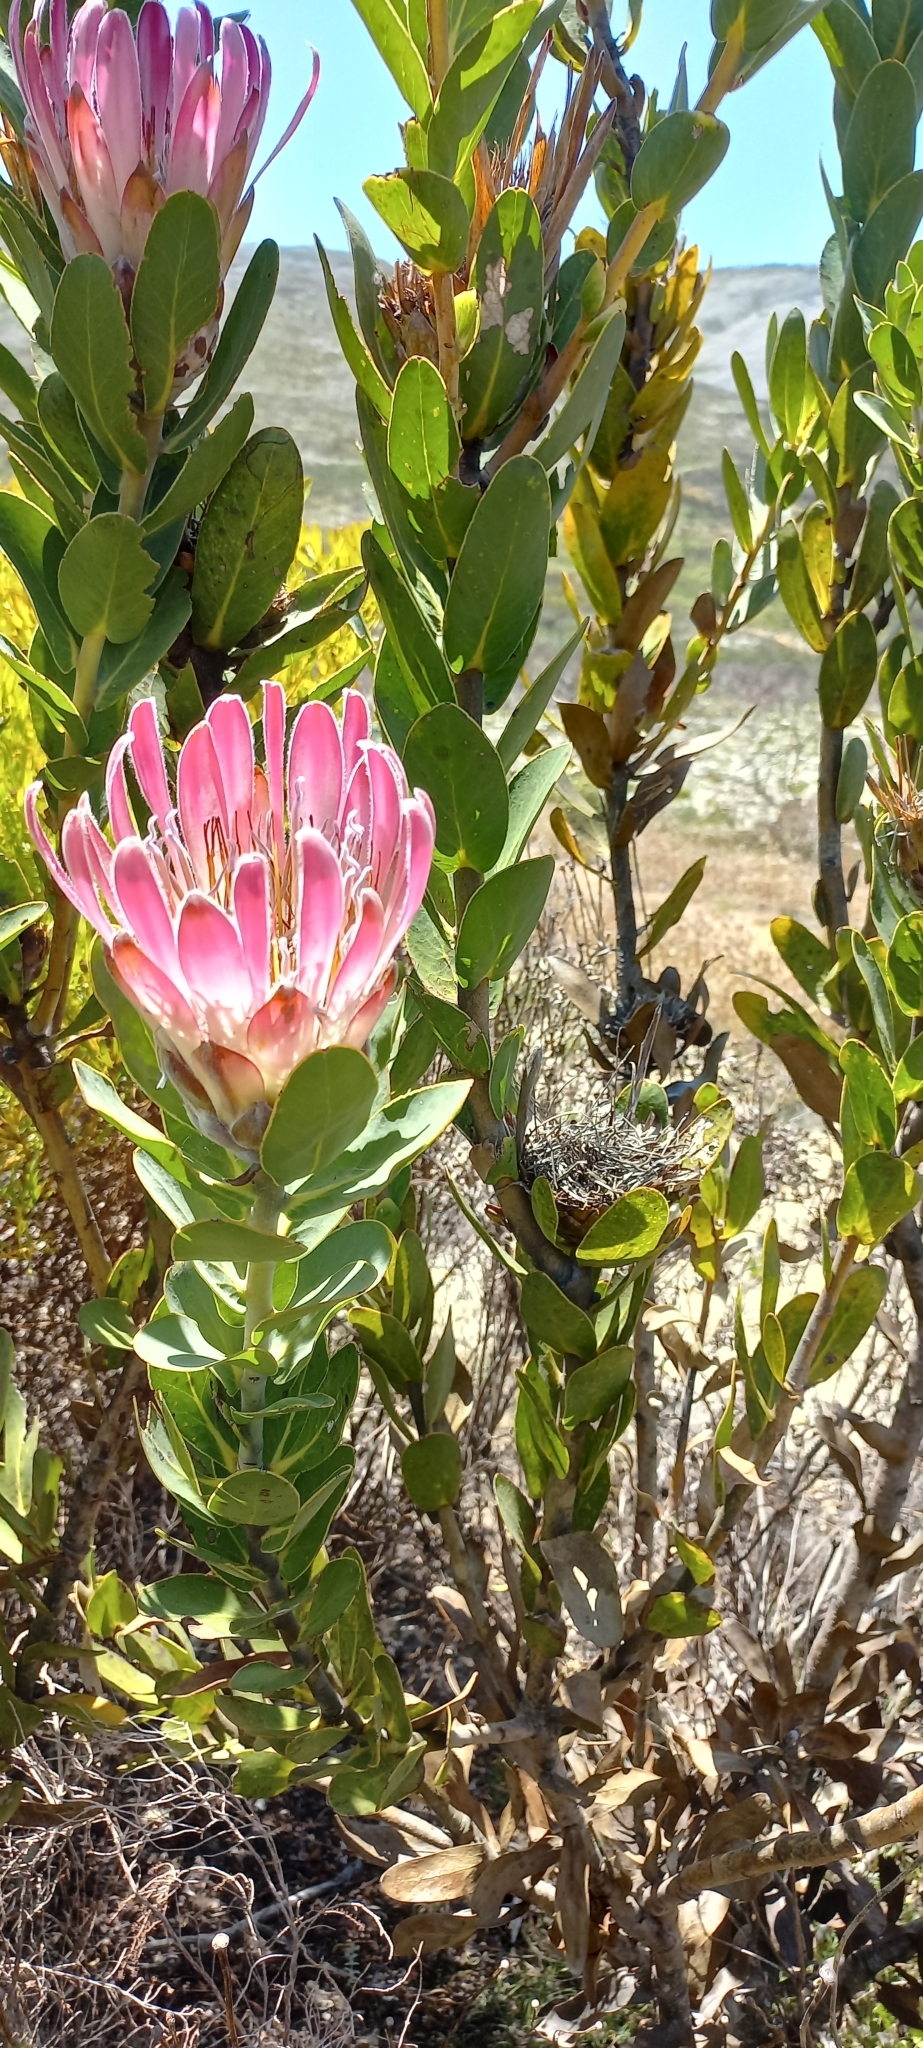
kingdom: Plantae
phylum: Tracheophyta
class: Magnoliopsida
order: Proteales
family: Proteaceae
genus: Protea
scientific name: Protea compacta
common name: Bot river protea
